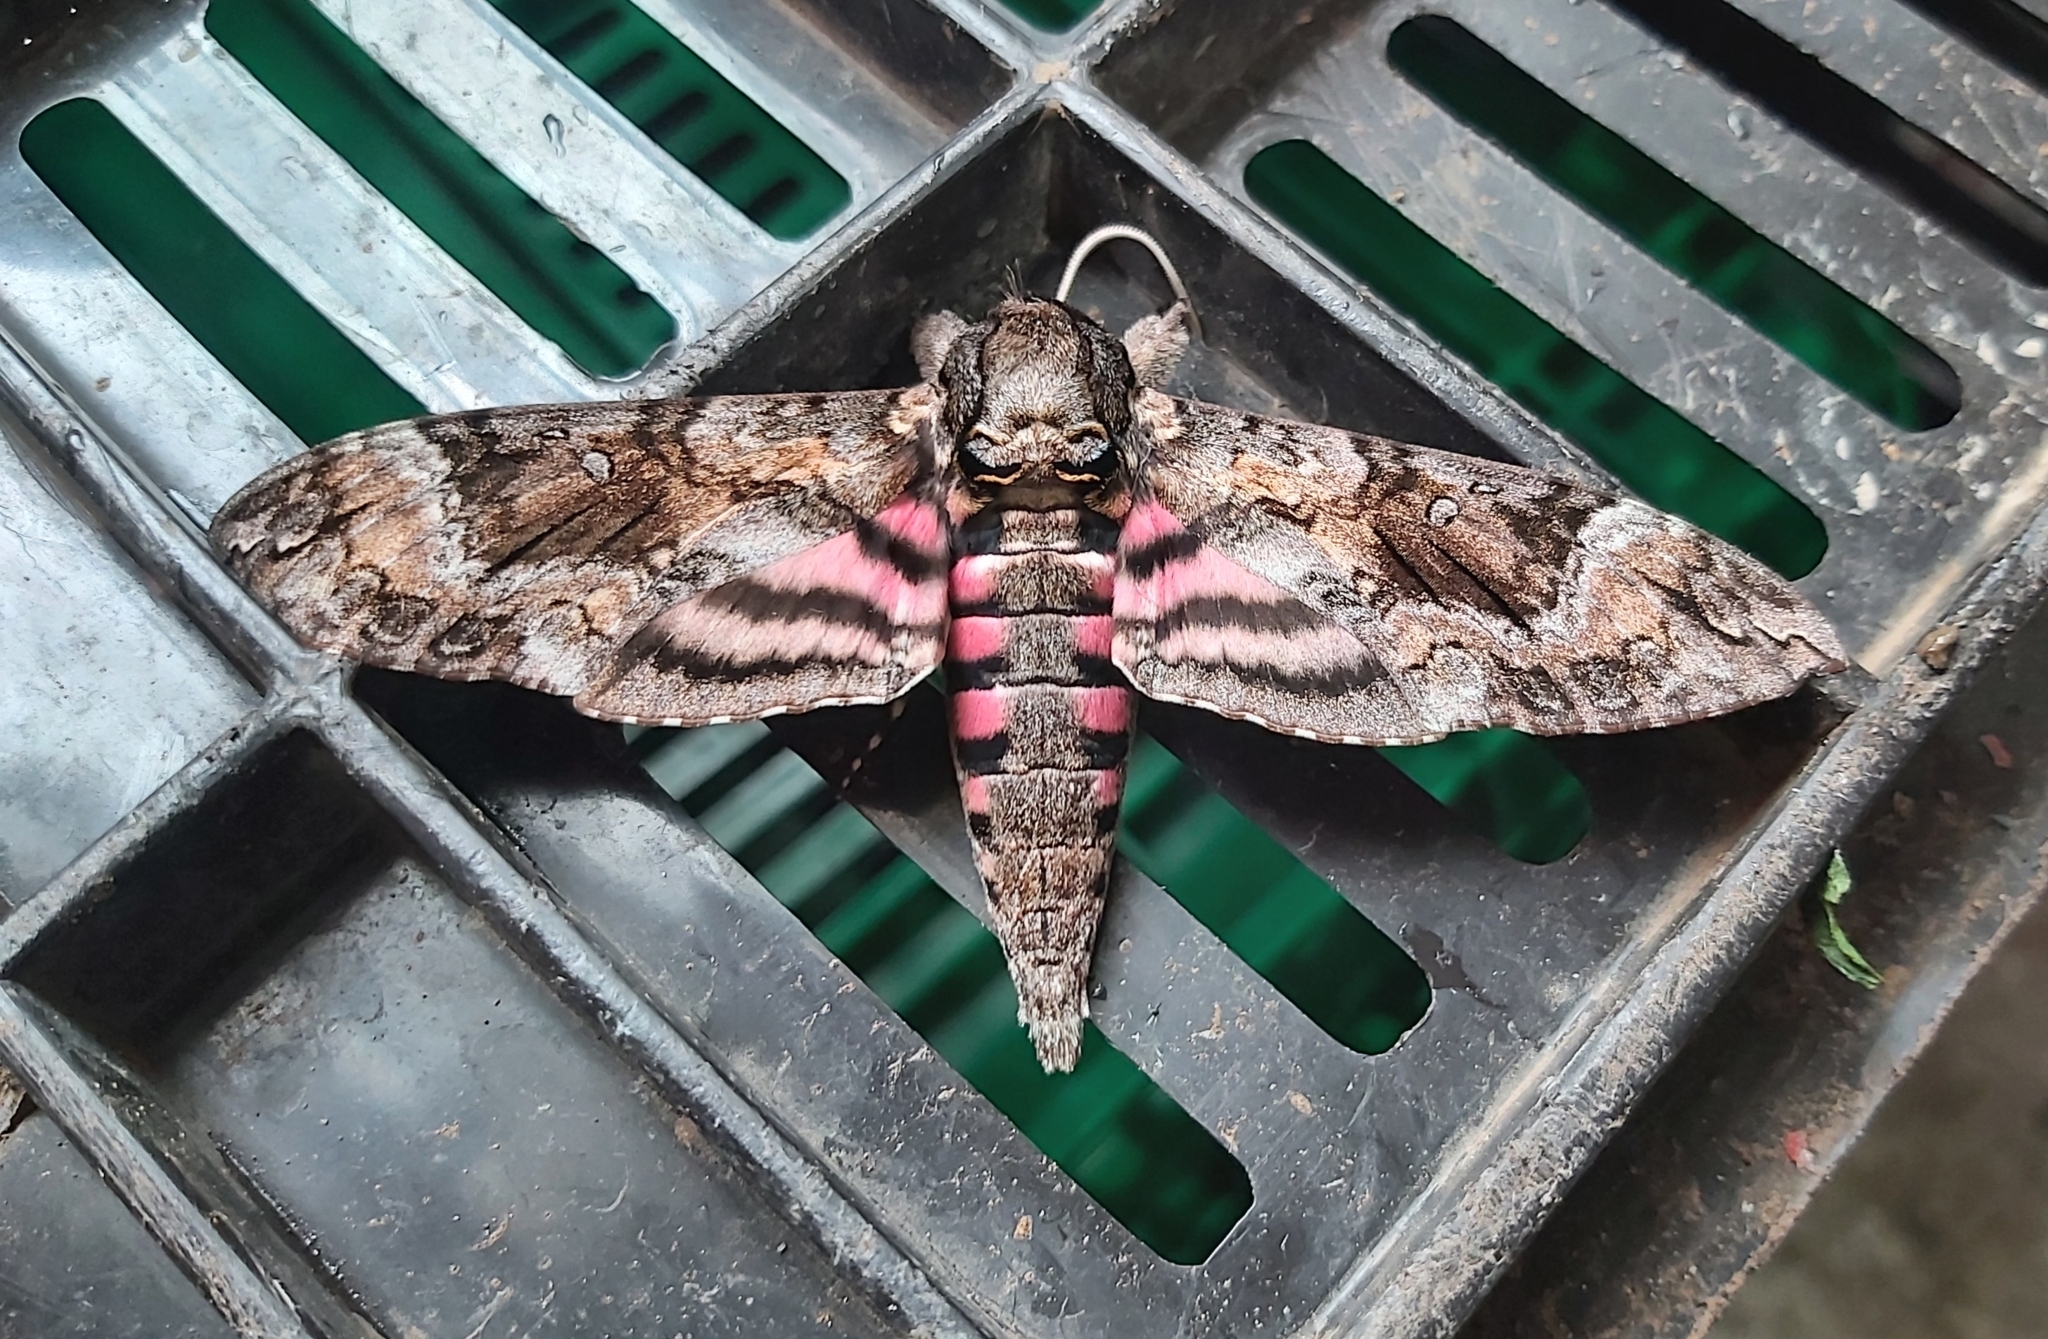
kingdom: Animalia
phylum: Arthropoda
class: Insecta
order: Lepidoptera
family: Sphingidae
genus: Agrius
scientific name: Agrius cingulata
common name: Pink-spotted hawkmoth
